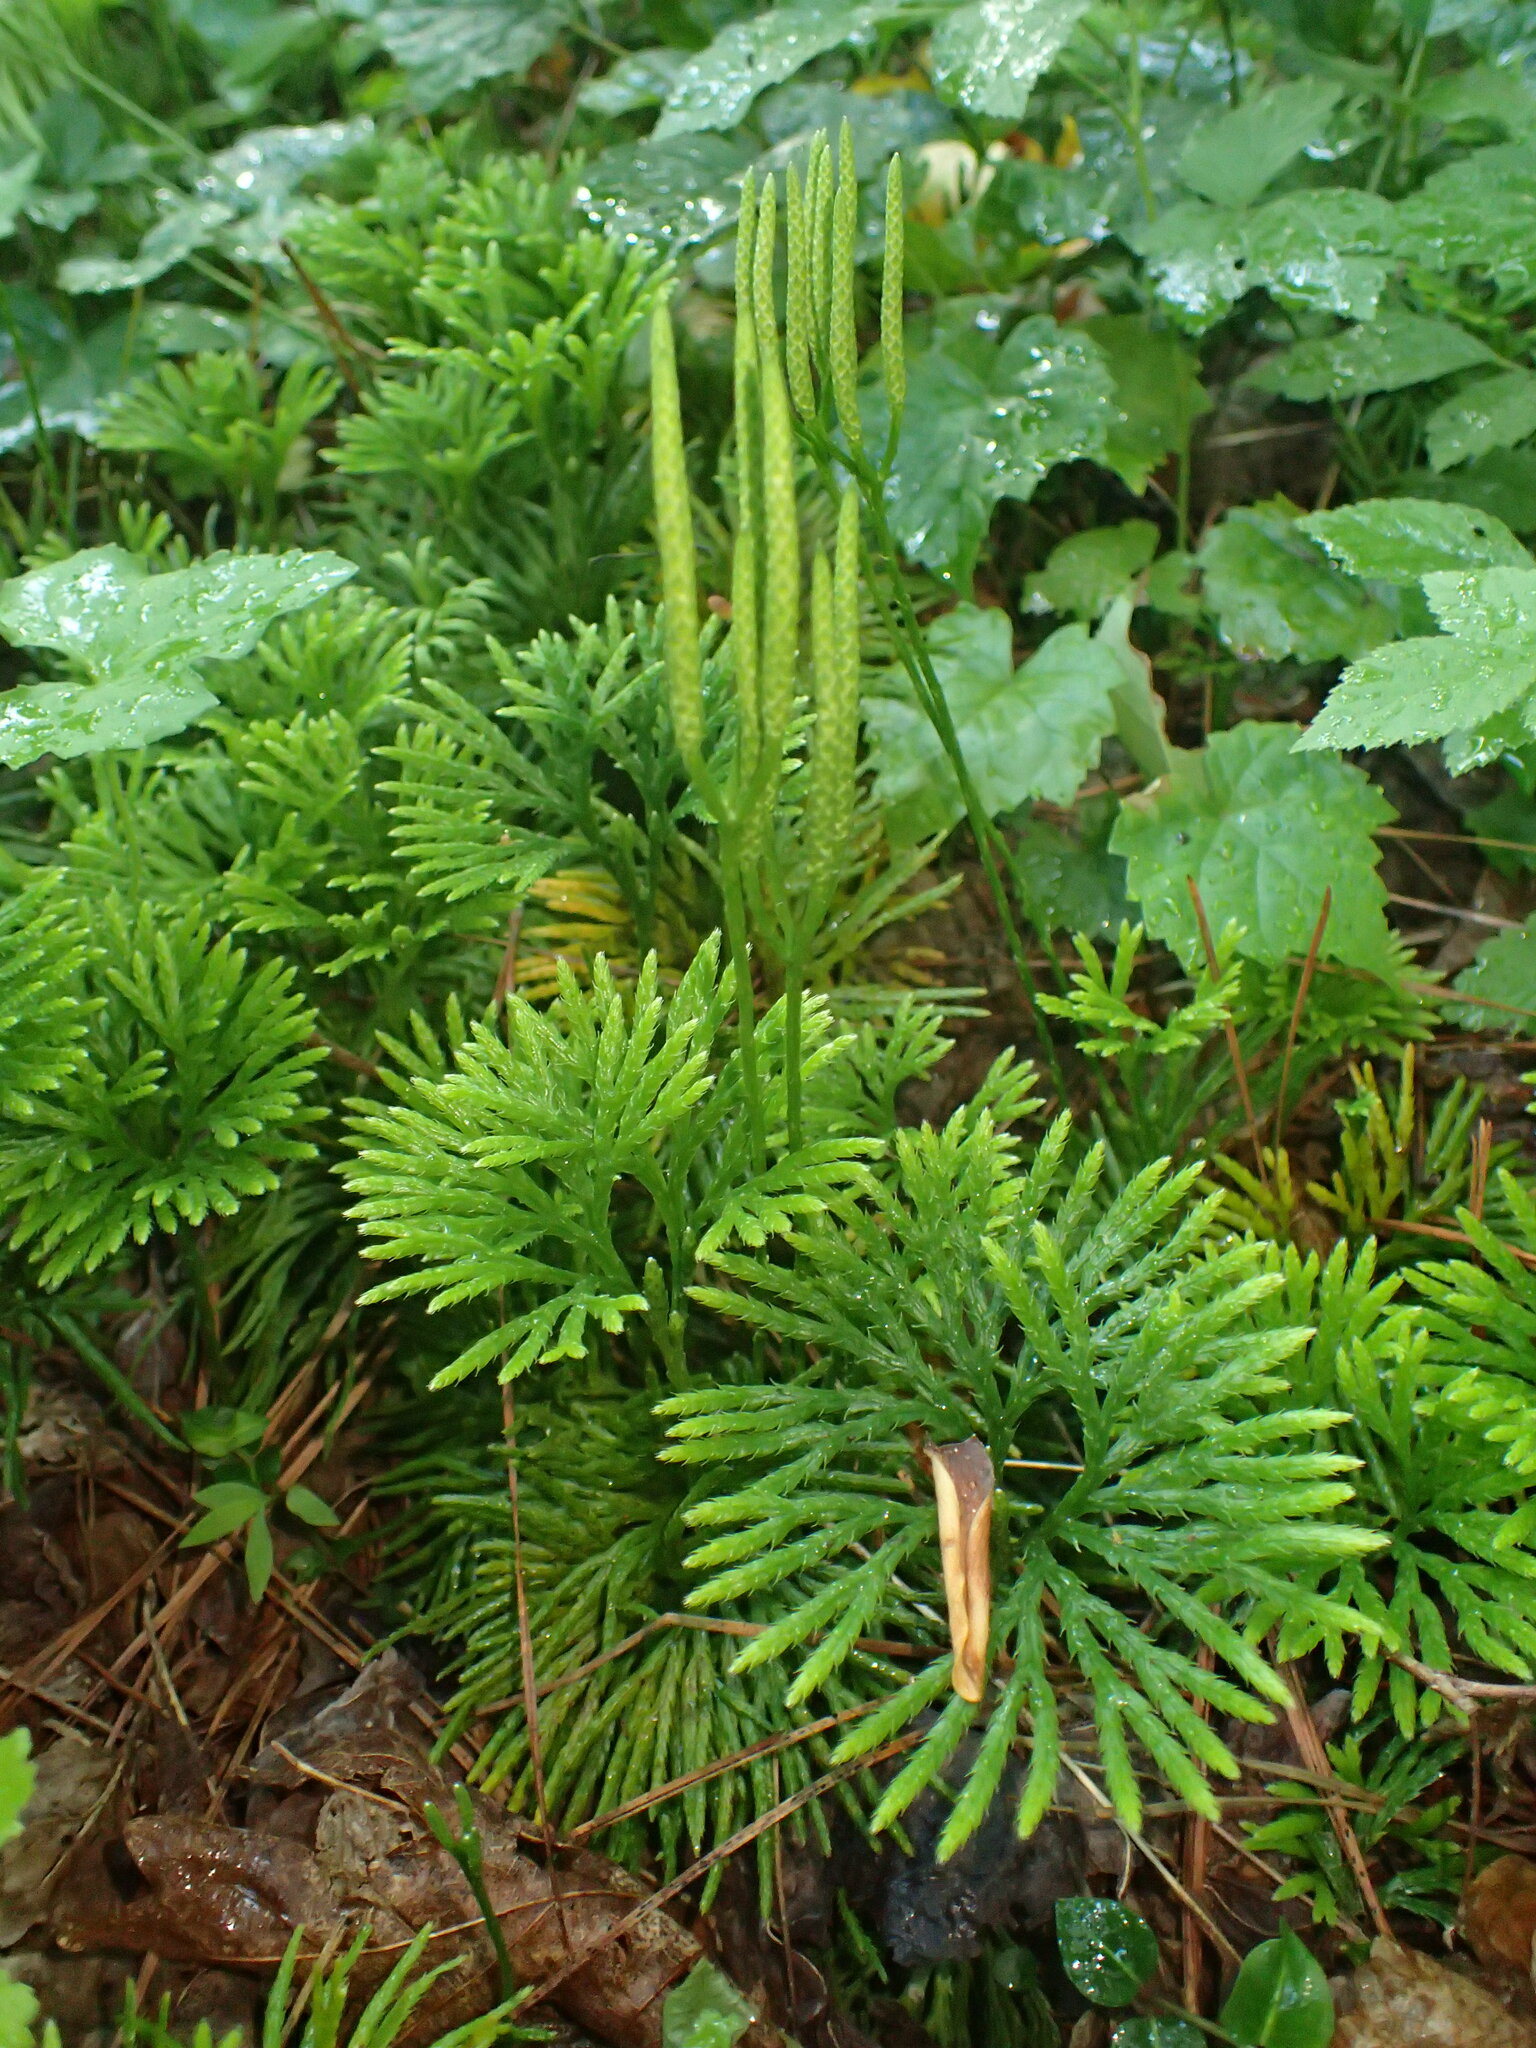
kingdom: Plantae
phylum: Tracheophyta
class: Lycopodiopsida
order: Lycopodiales
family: Lycopodiaceae
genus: Diphasiastrum
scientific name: Diphasiastrum digitatum
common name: Southern running-pine
